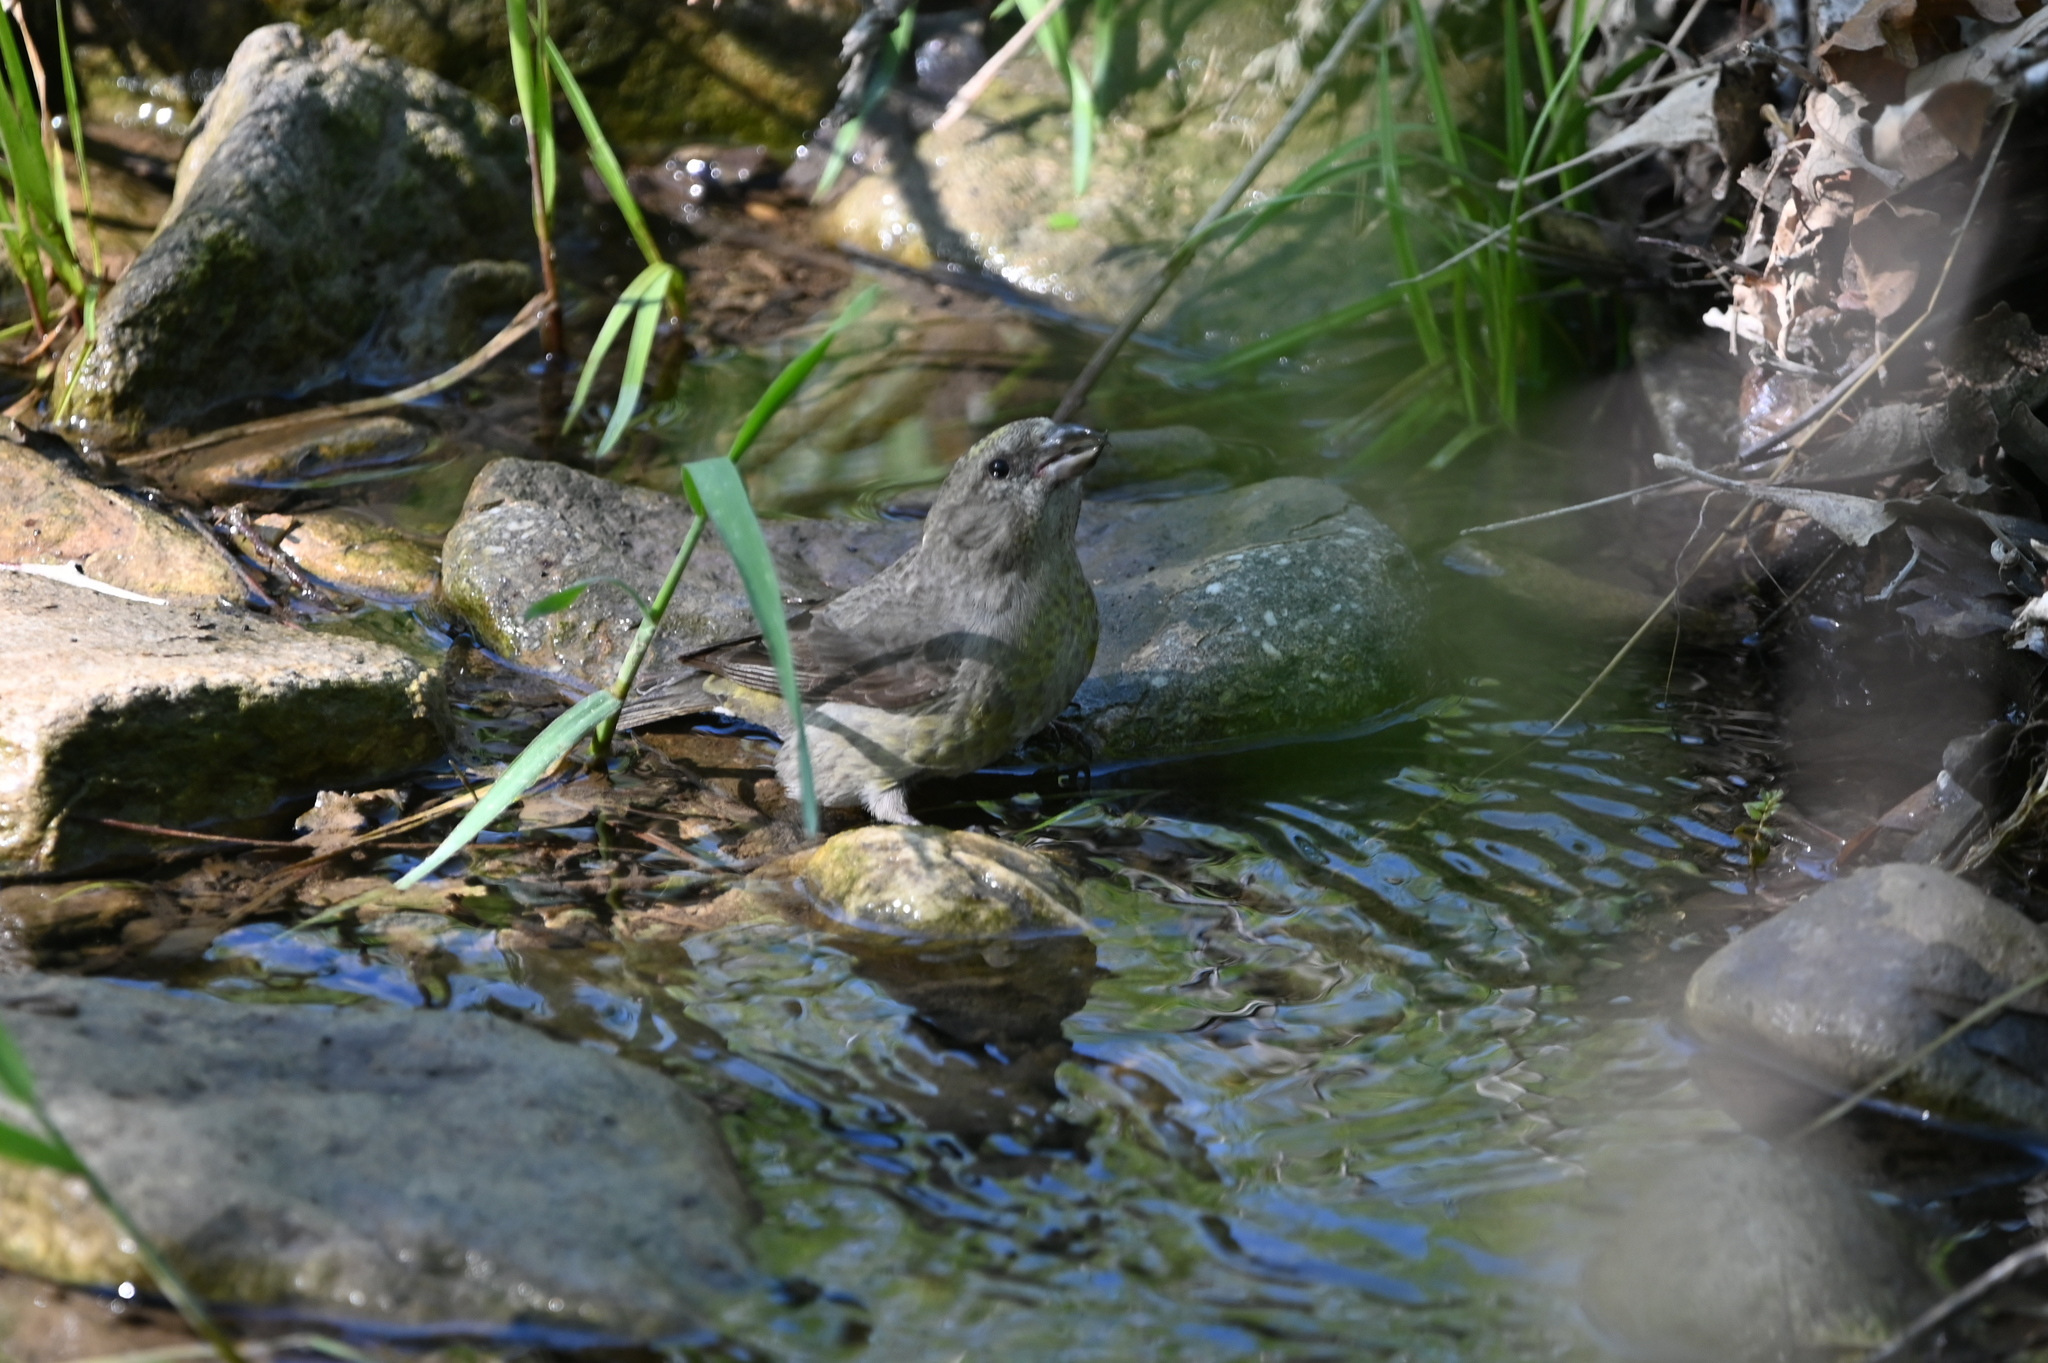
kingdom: Animalia
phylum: Chordata
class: Aves
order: Passeriformes
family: Fringillidae
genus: Loxia
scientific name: Loxia curvirostra
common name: Red crossbill
